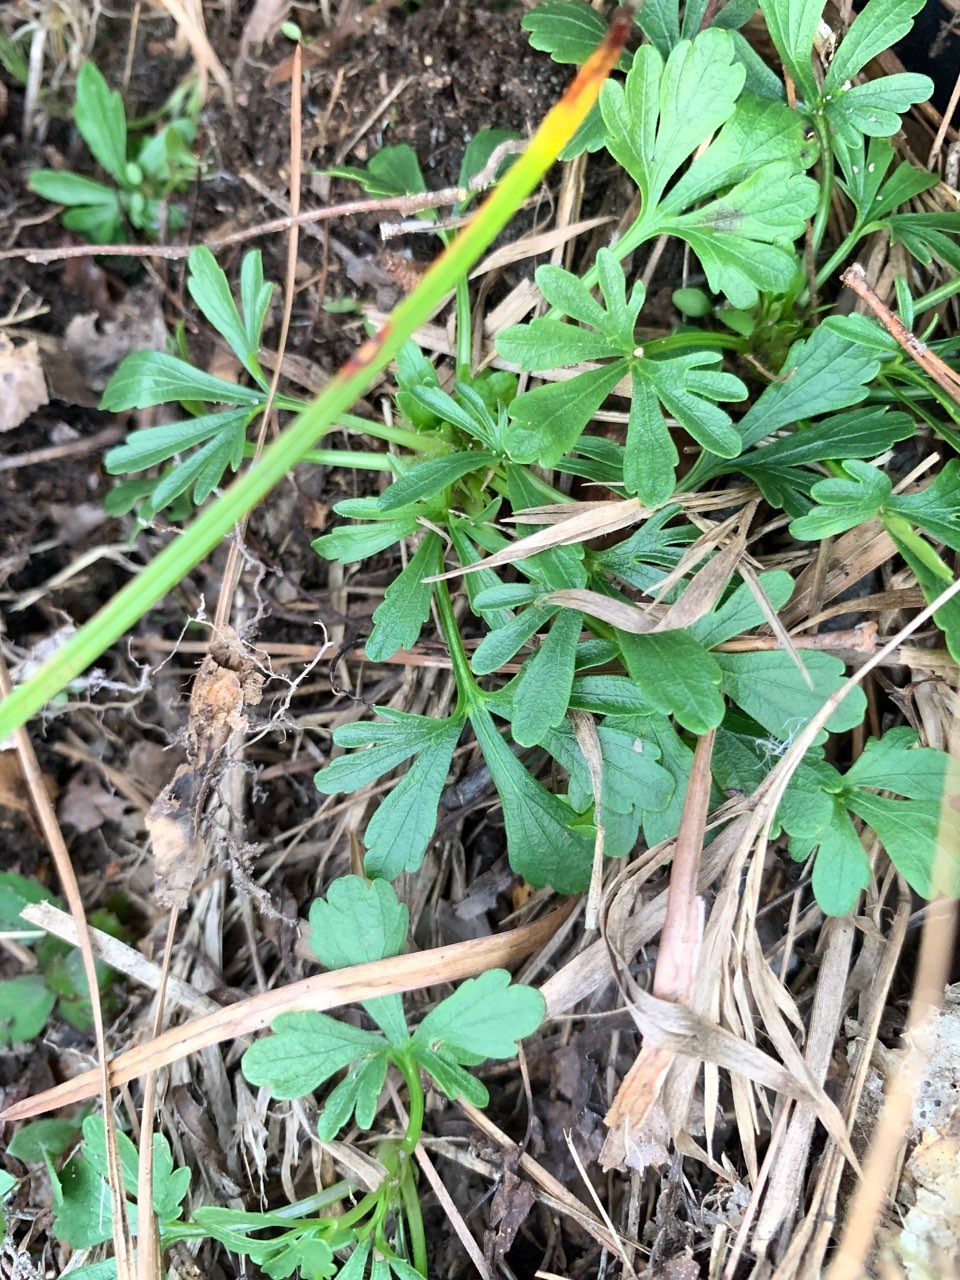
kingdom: Plantae
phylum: Tracheophyta
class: Magnoliopsida
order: Malpighiales
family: Violaceae
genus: Viola
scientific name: Viola pedata
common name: Pansy violet
